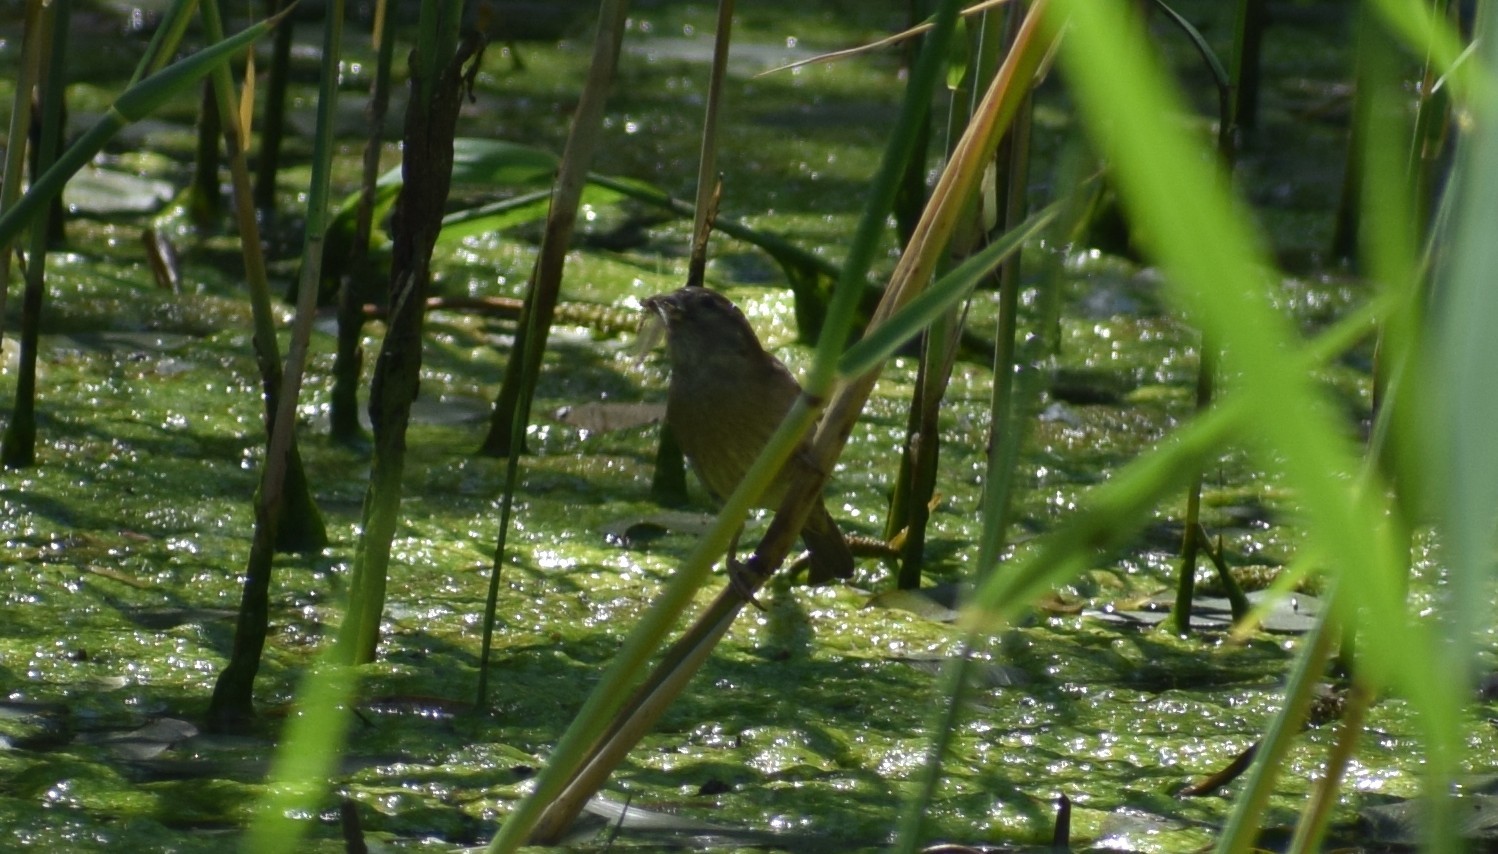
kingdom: Animalia
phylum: Chordata
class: Aves
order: Passeriformes
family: Passeridae
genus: Passer
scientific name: Passer domesticus
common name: House sparrow
